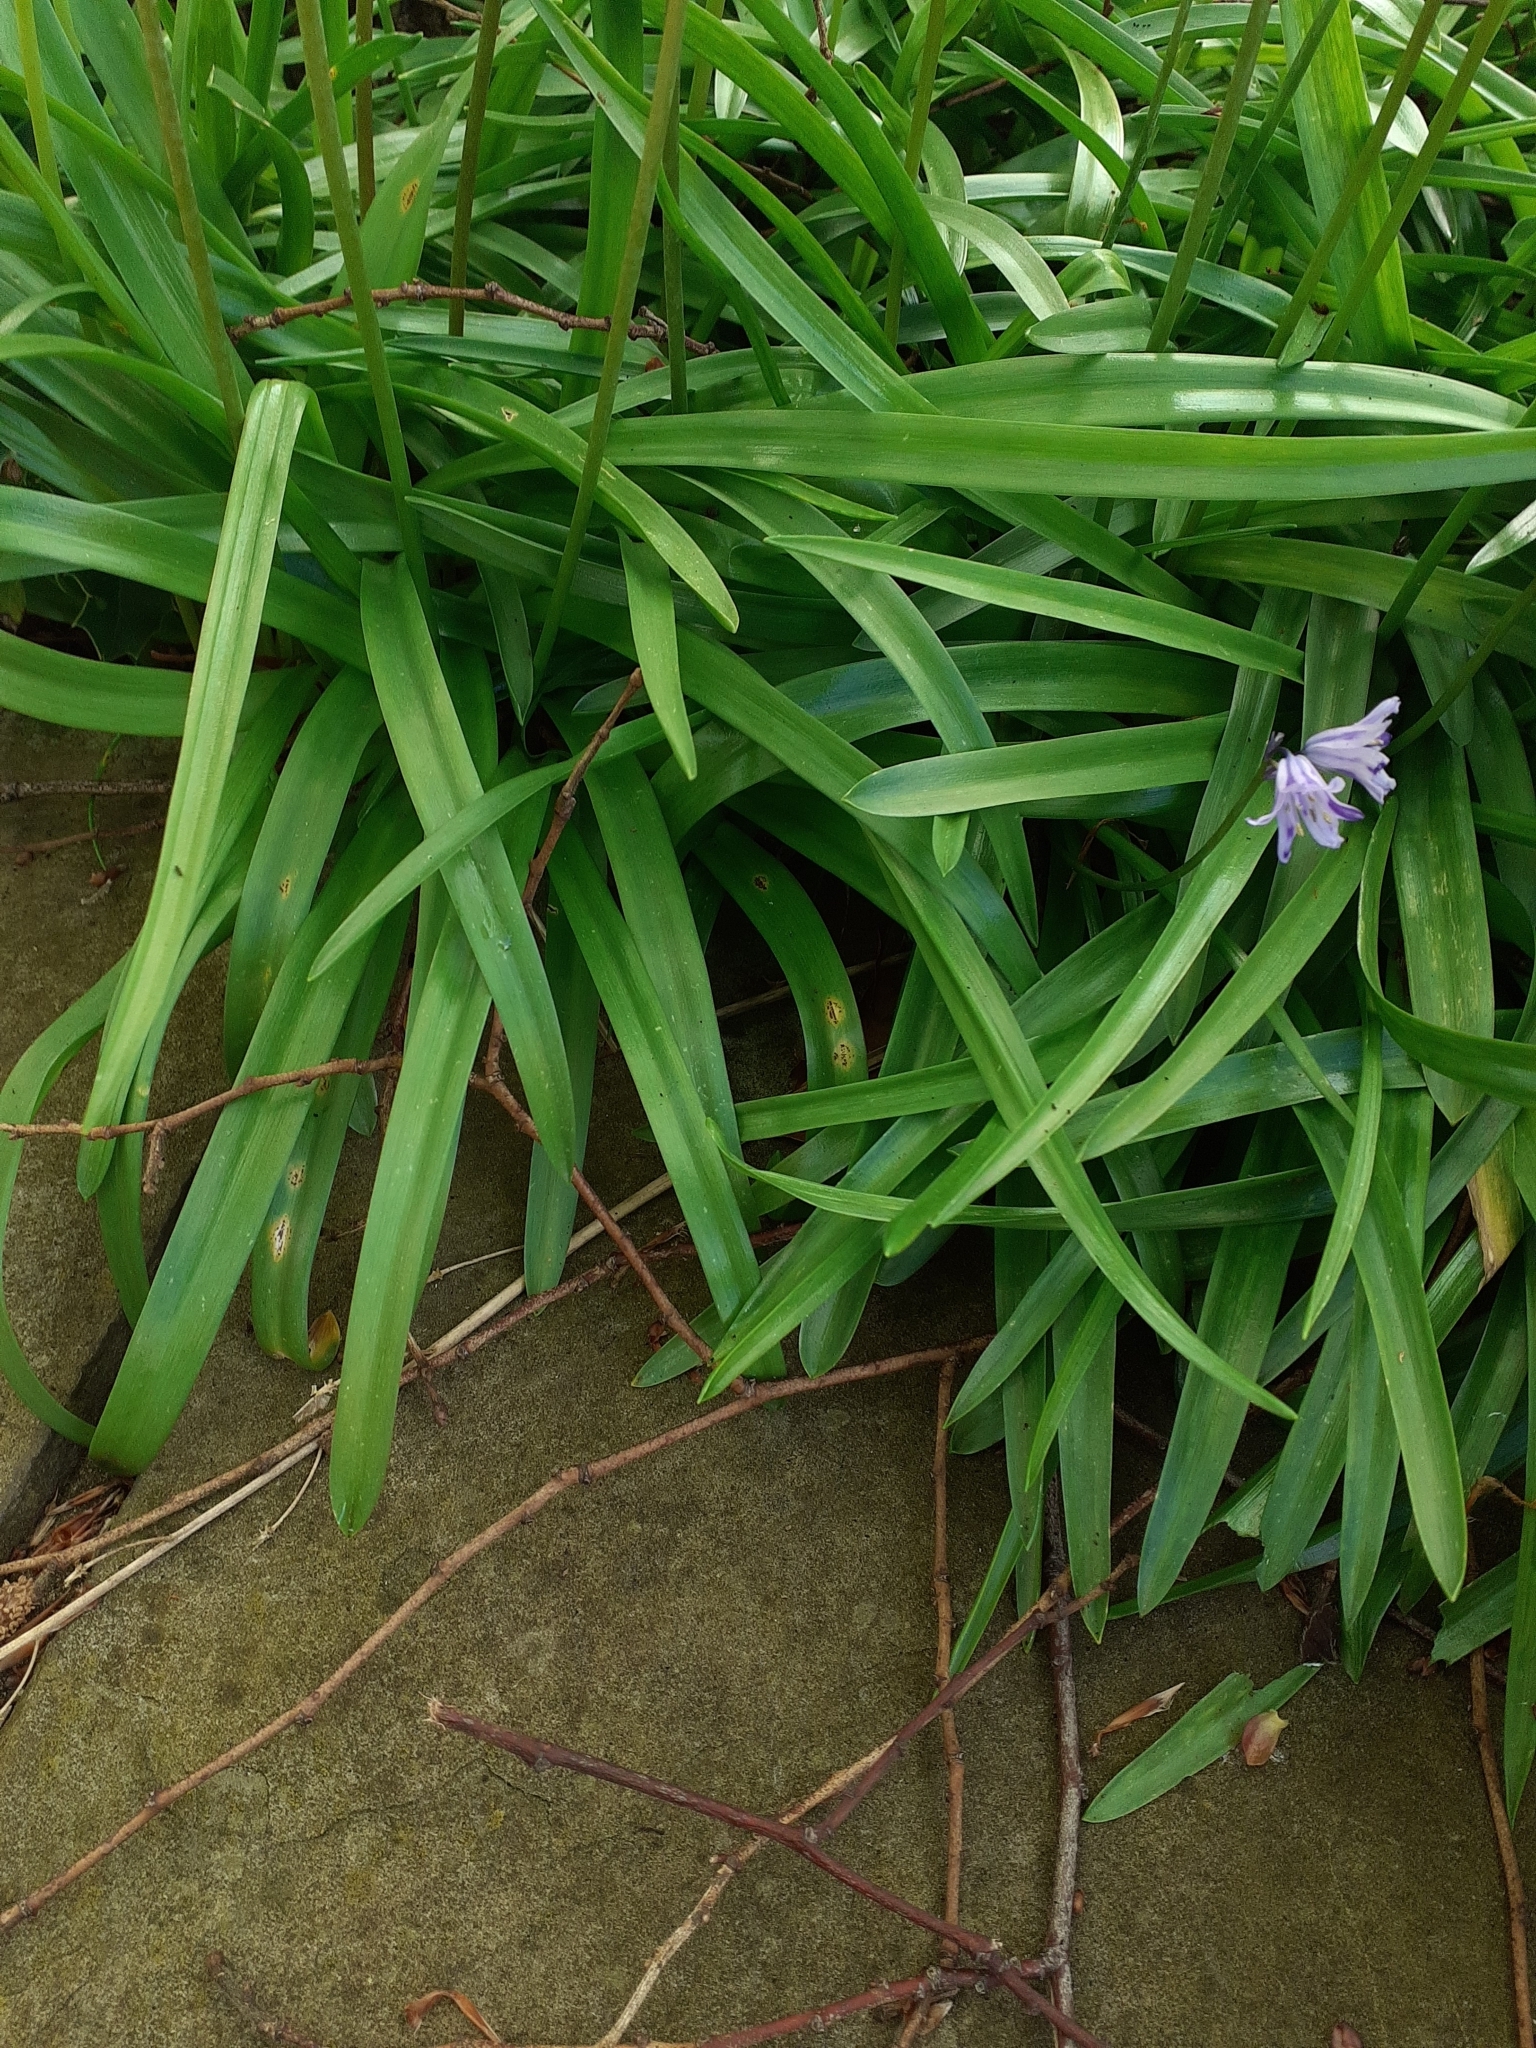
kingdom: Fungi
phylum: Basidiomycota
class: Pucciniomycetes
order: Pucciniales
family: Pucciniaceae
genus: Uromyces
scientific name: Uromyces hyacinthi
